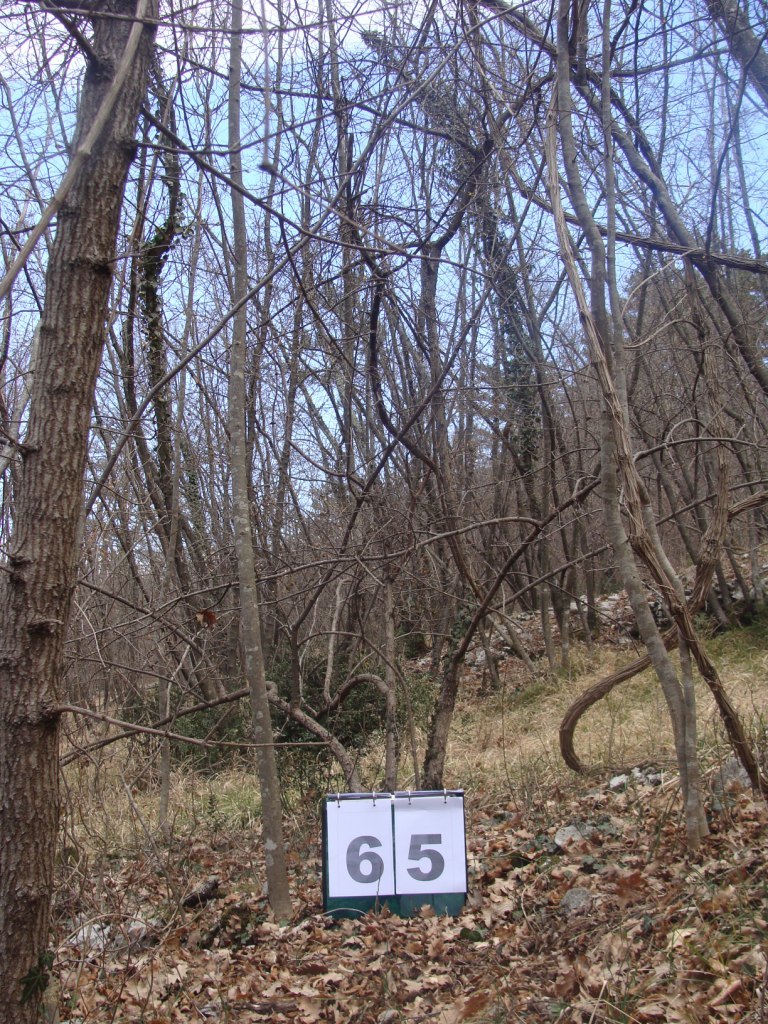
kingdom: Plantae
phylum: Tracheophyta
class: Magnoliopsida
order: Cornales
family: Cornaceae
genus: Cornus
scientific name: Cornus mas
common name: Cornelian-cherry
